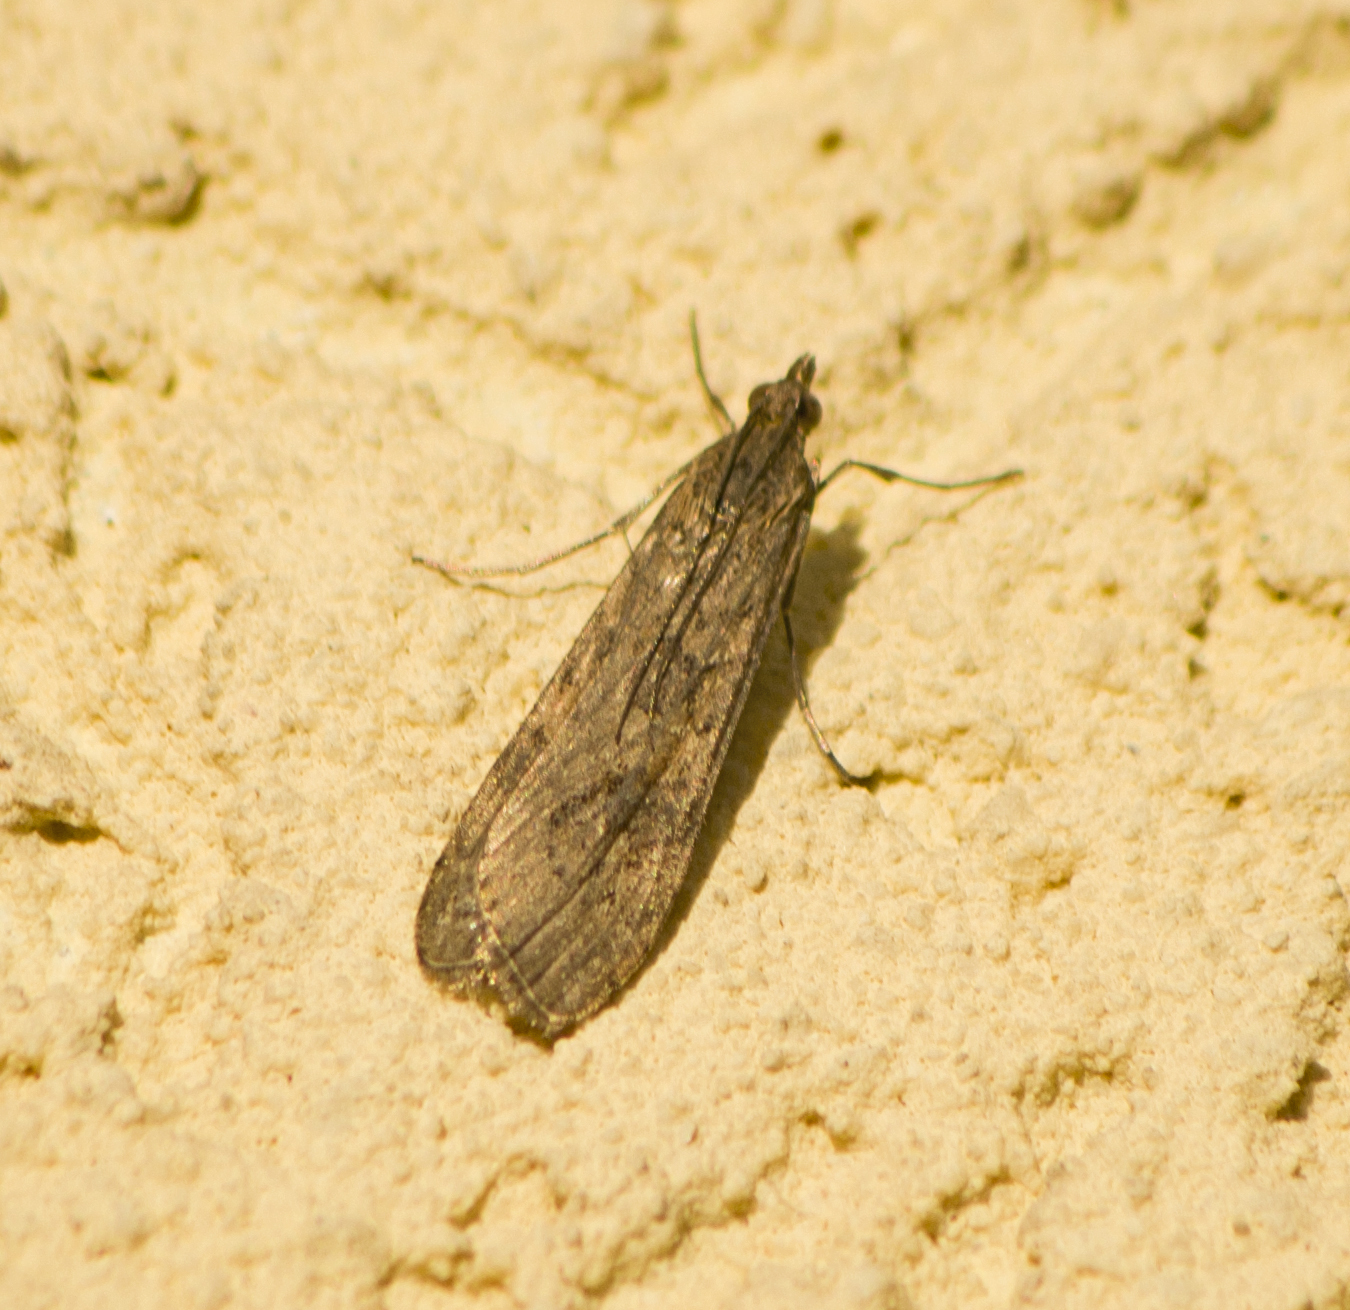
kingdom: Animalia
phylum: Arthropoda
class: Insecta
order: Lepidoptera
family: Crambidae
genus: Nomophila
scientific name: Nomophila noctuella
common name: Rush veneer
